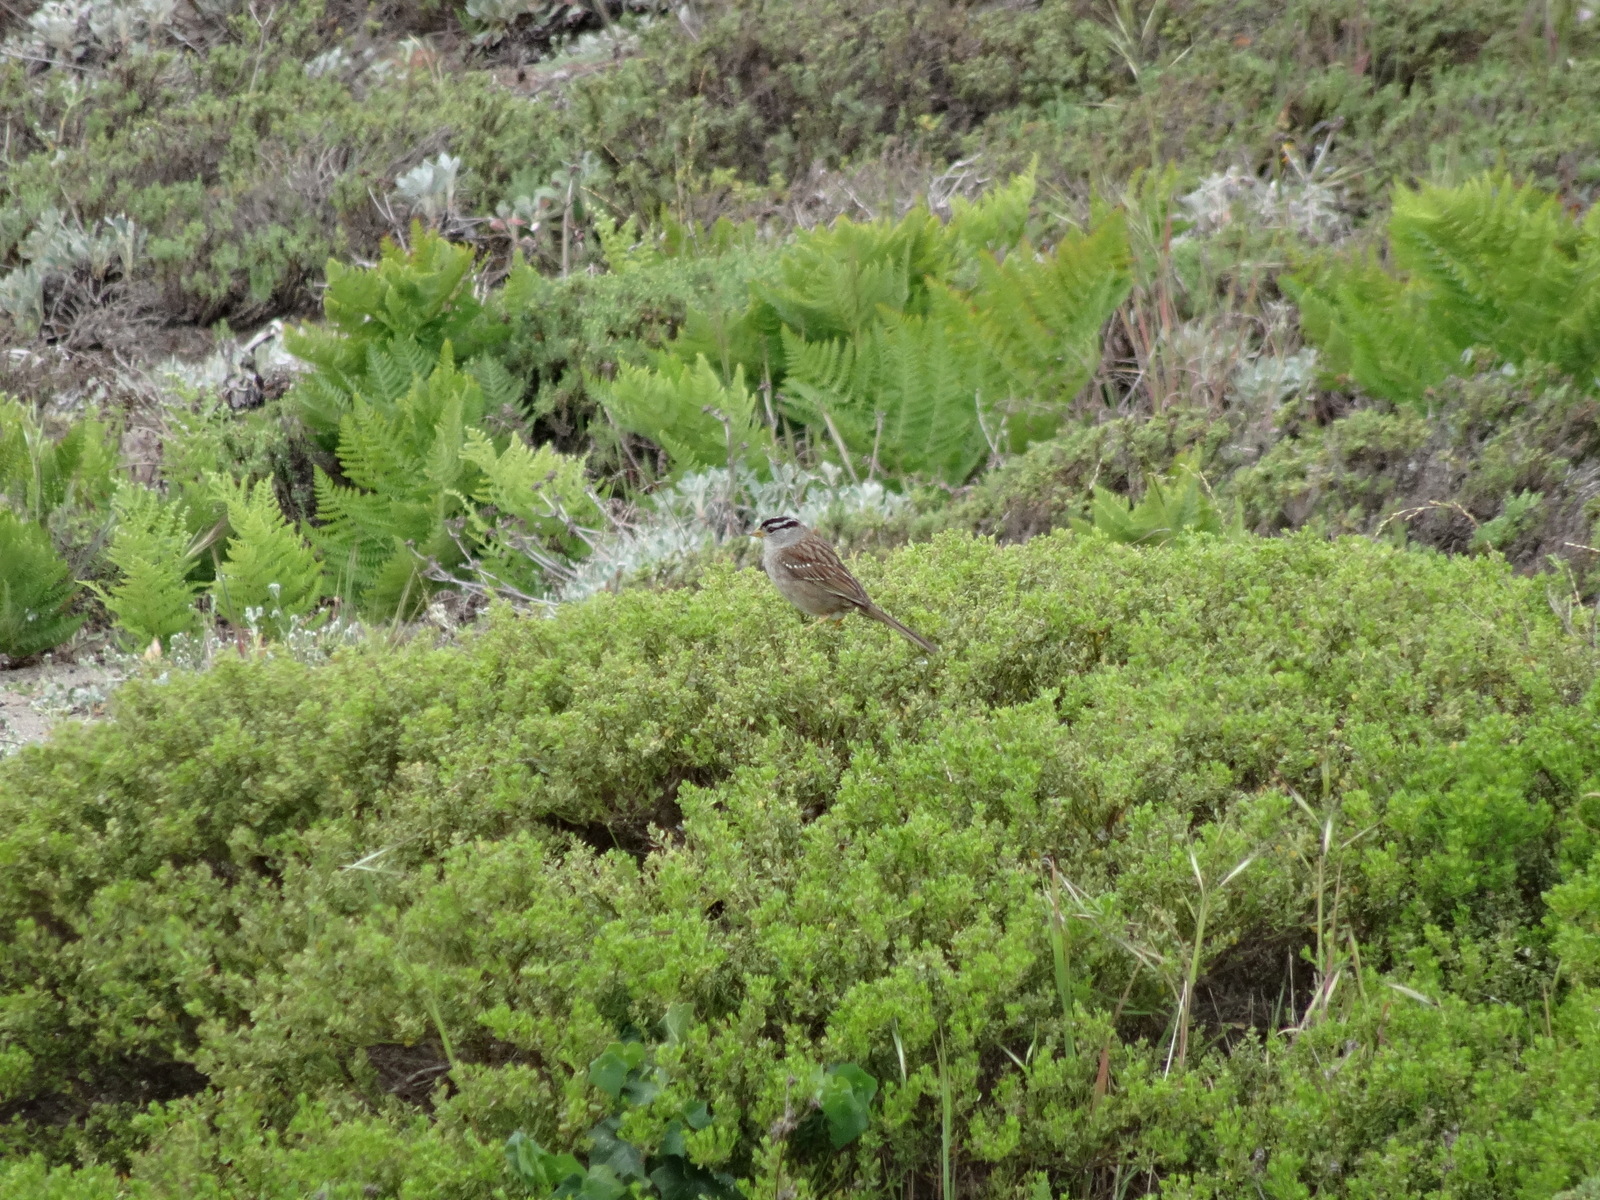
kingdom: Animalia
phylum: Chordata
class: Aves
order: Passeriformes
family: Passerellidae
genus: Zonotrichia
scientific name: Zonotrichia leucophrys
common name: White-crowned sparrow
